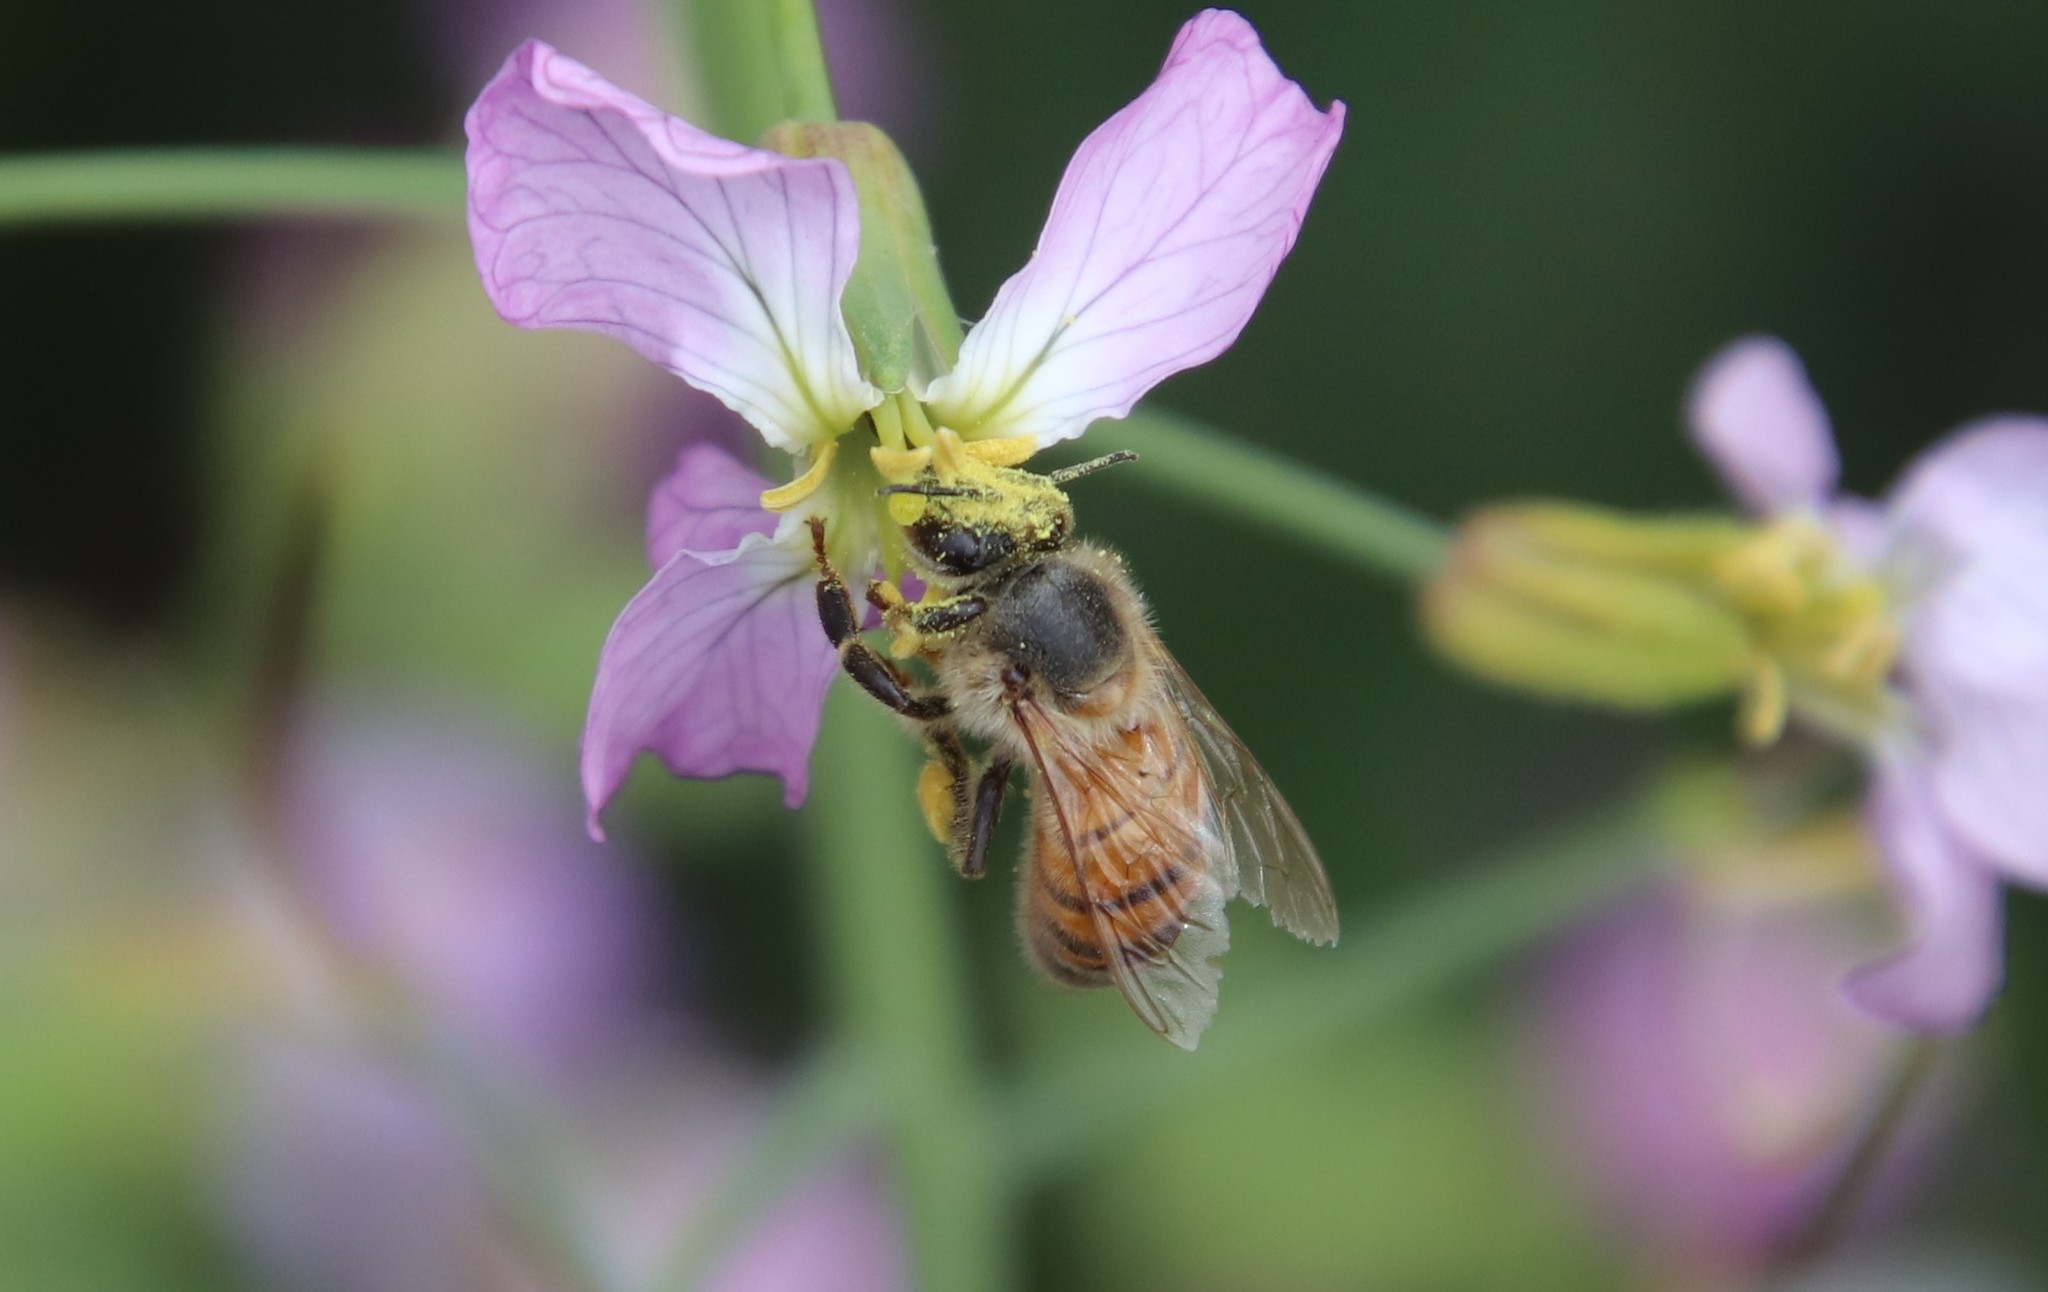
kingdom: Animalia
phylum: Arthropoda
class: Insecta
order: Hymenoptera
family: Apidae
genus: Apis
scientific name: Apis mellifera
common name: Honey bee
